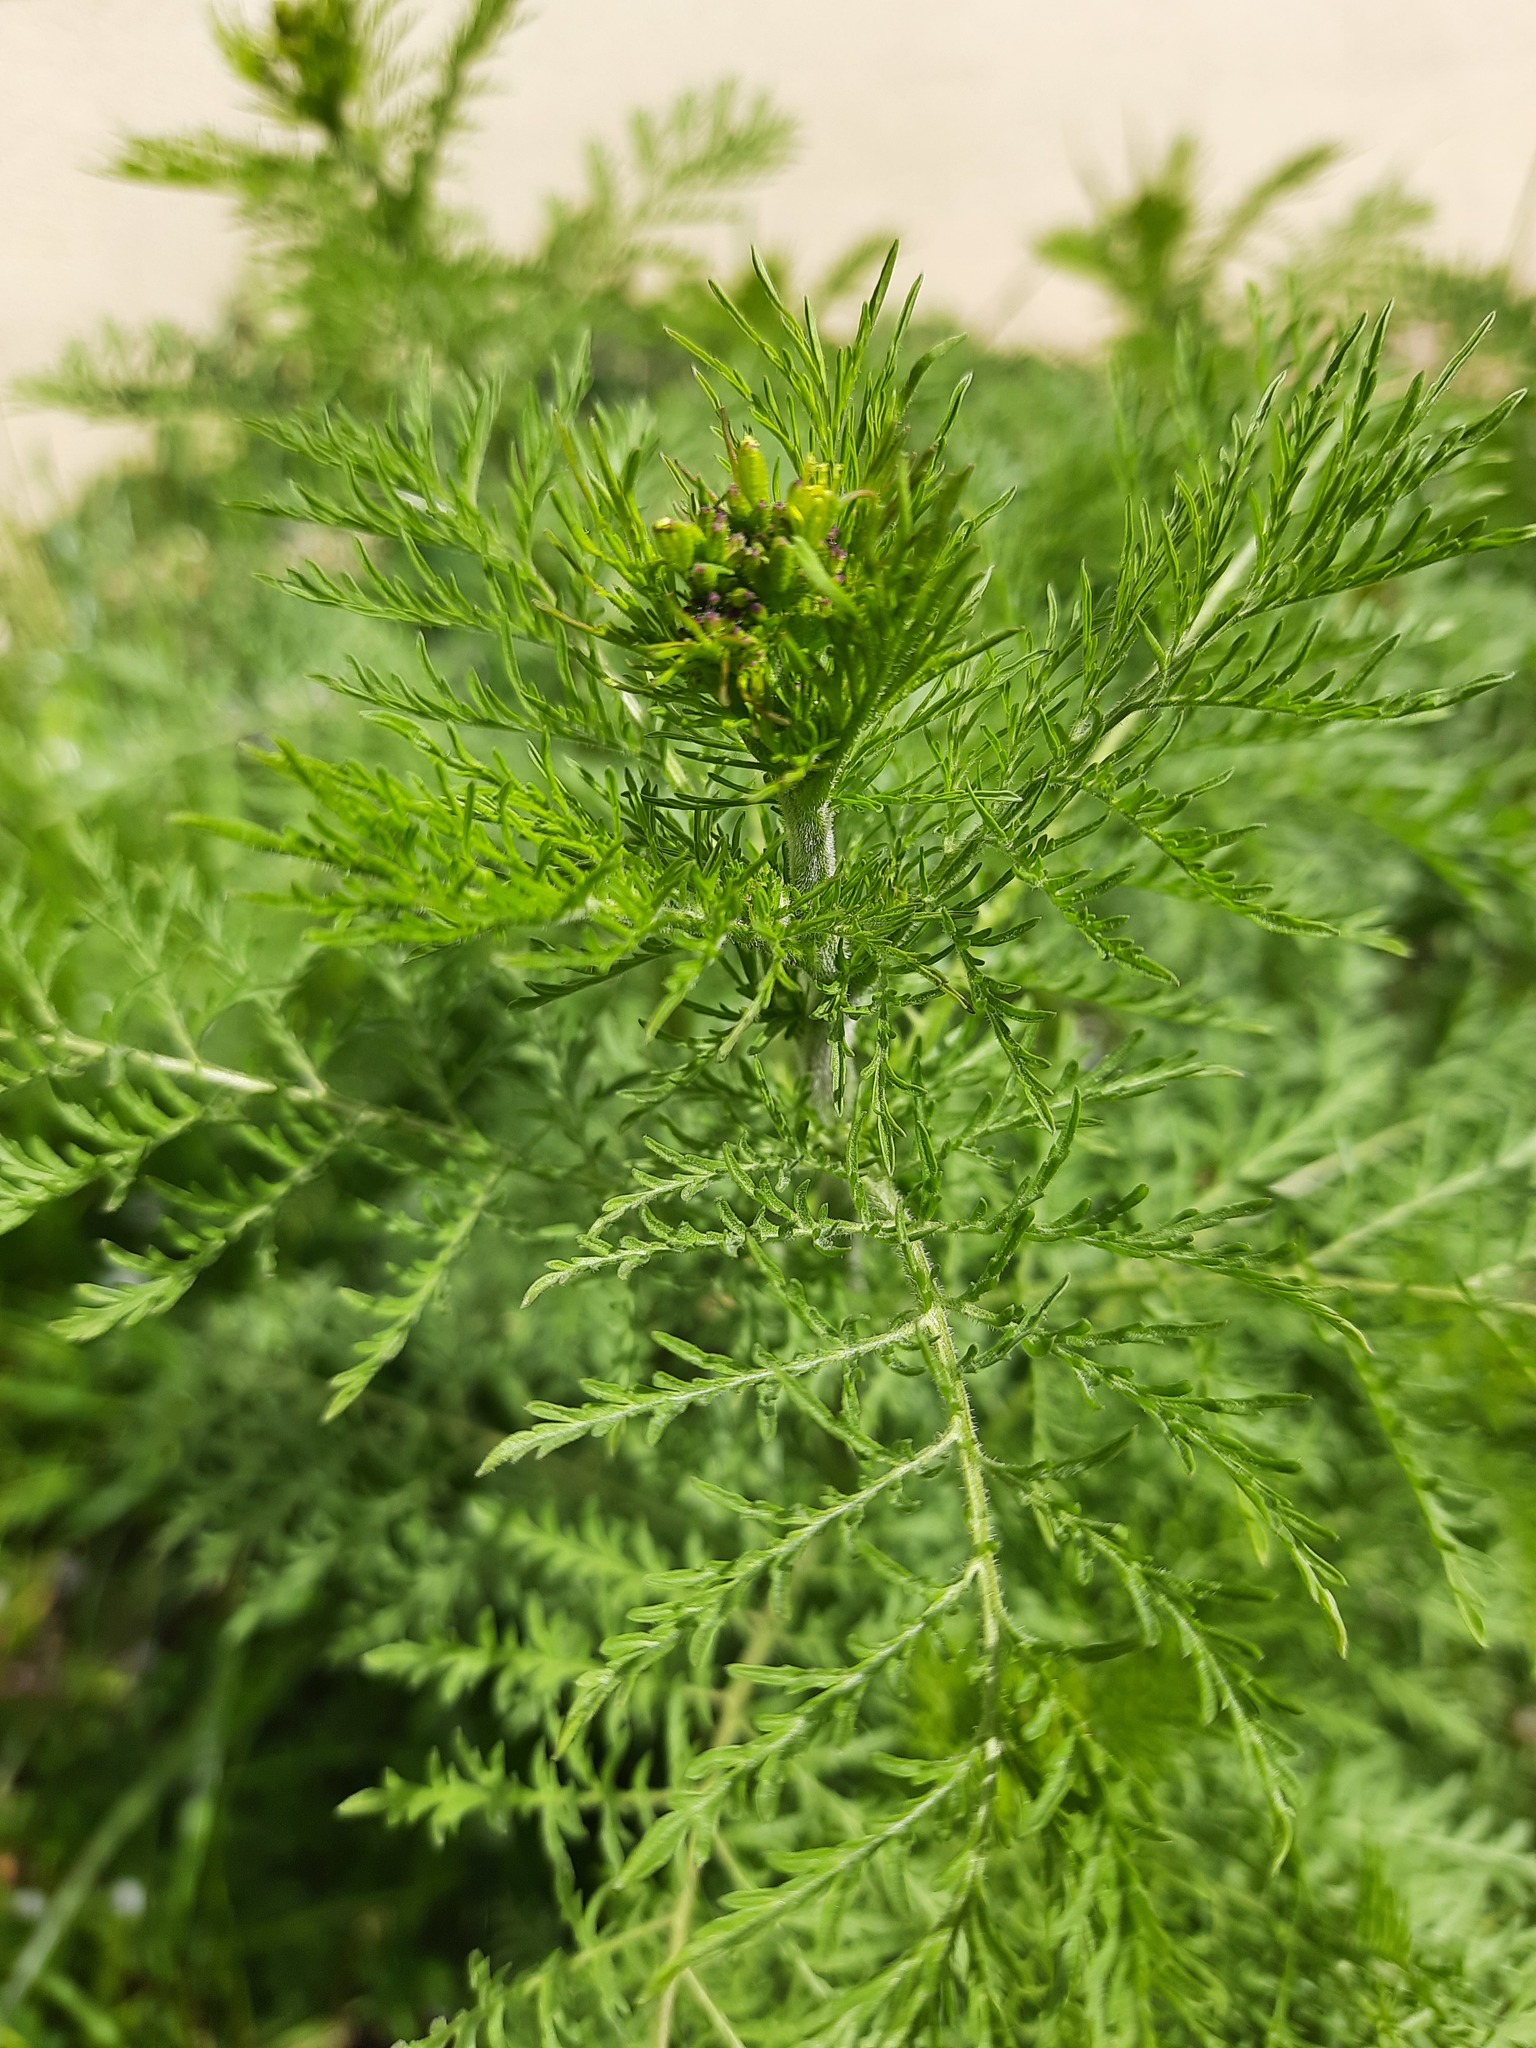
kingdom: Plantae
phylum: Tracheophyta
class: Magnoliopsida
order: Brassicales
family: Brassicaceae
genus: Descurainia
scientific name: Descurainia sophia
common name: Flixweed
